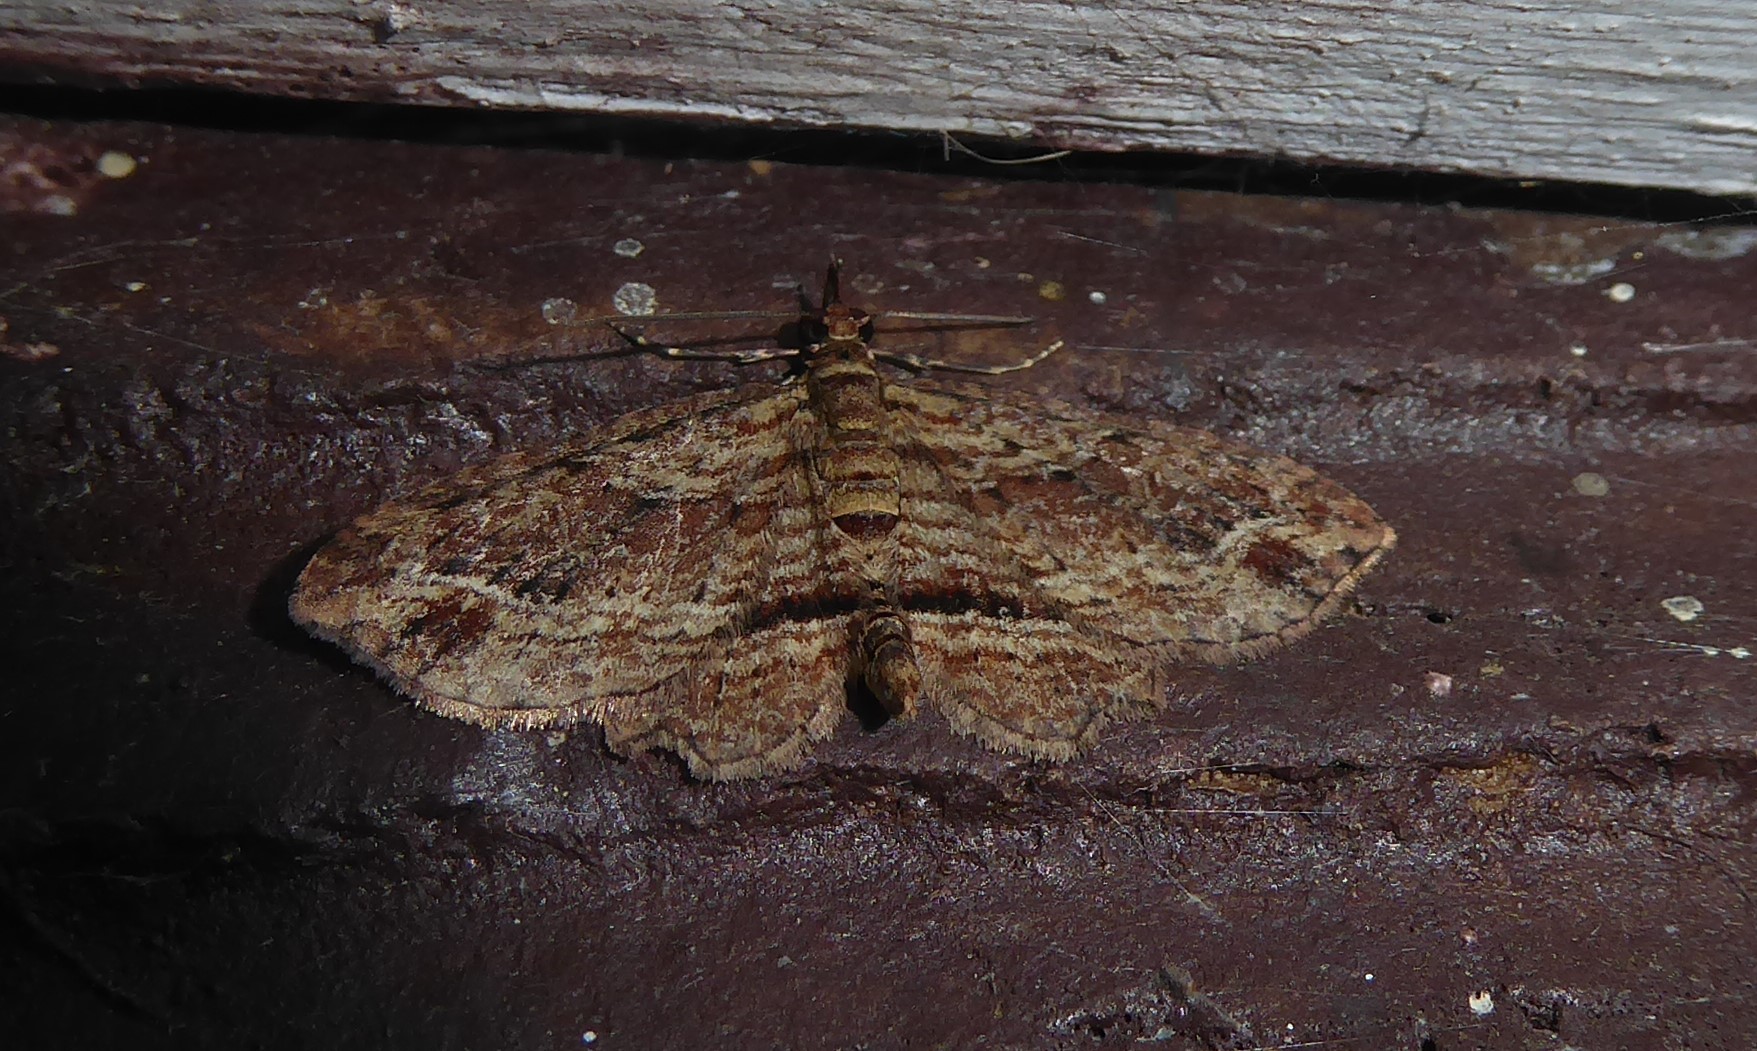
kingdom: Animalia
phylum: Arthropoda
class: Insecta
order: Lepidoptera
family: Geometridae
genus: Chloroclystis
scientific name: Chloroclystis filata
